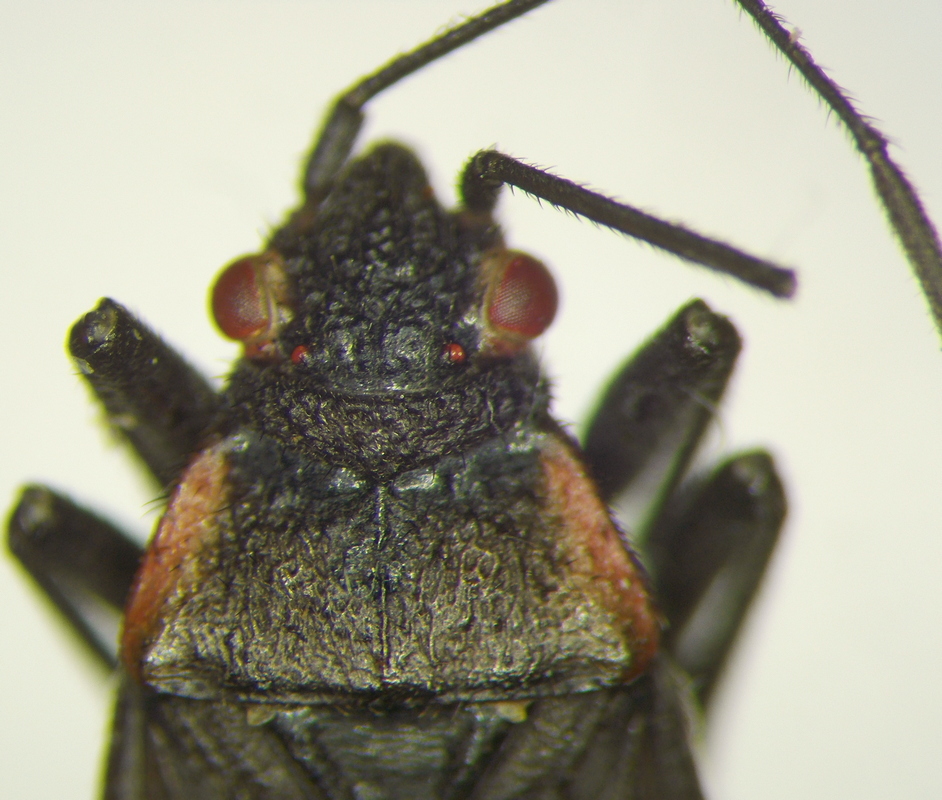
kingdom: Animalia
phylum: Arthropoda
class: Insecta
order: Hemiptera
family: Rhopalidae
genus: Jadera
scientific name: Jadera haematoloma
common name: Red-shouldered bug
